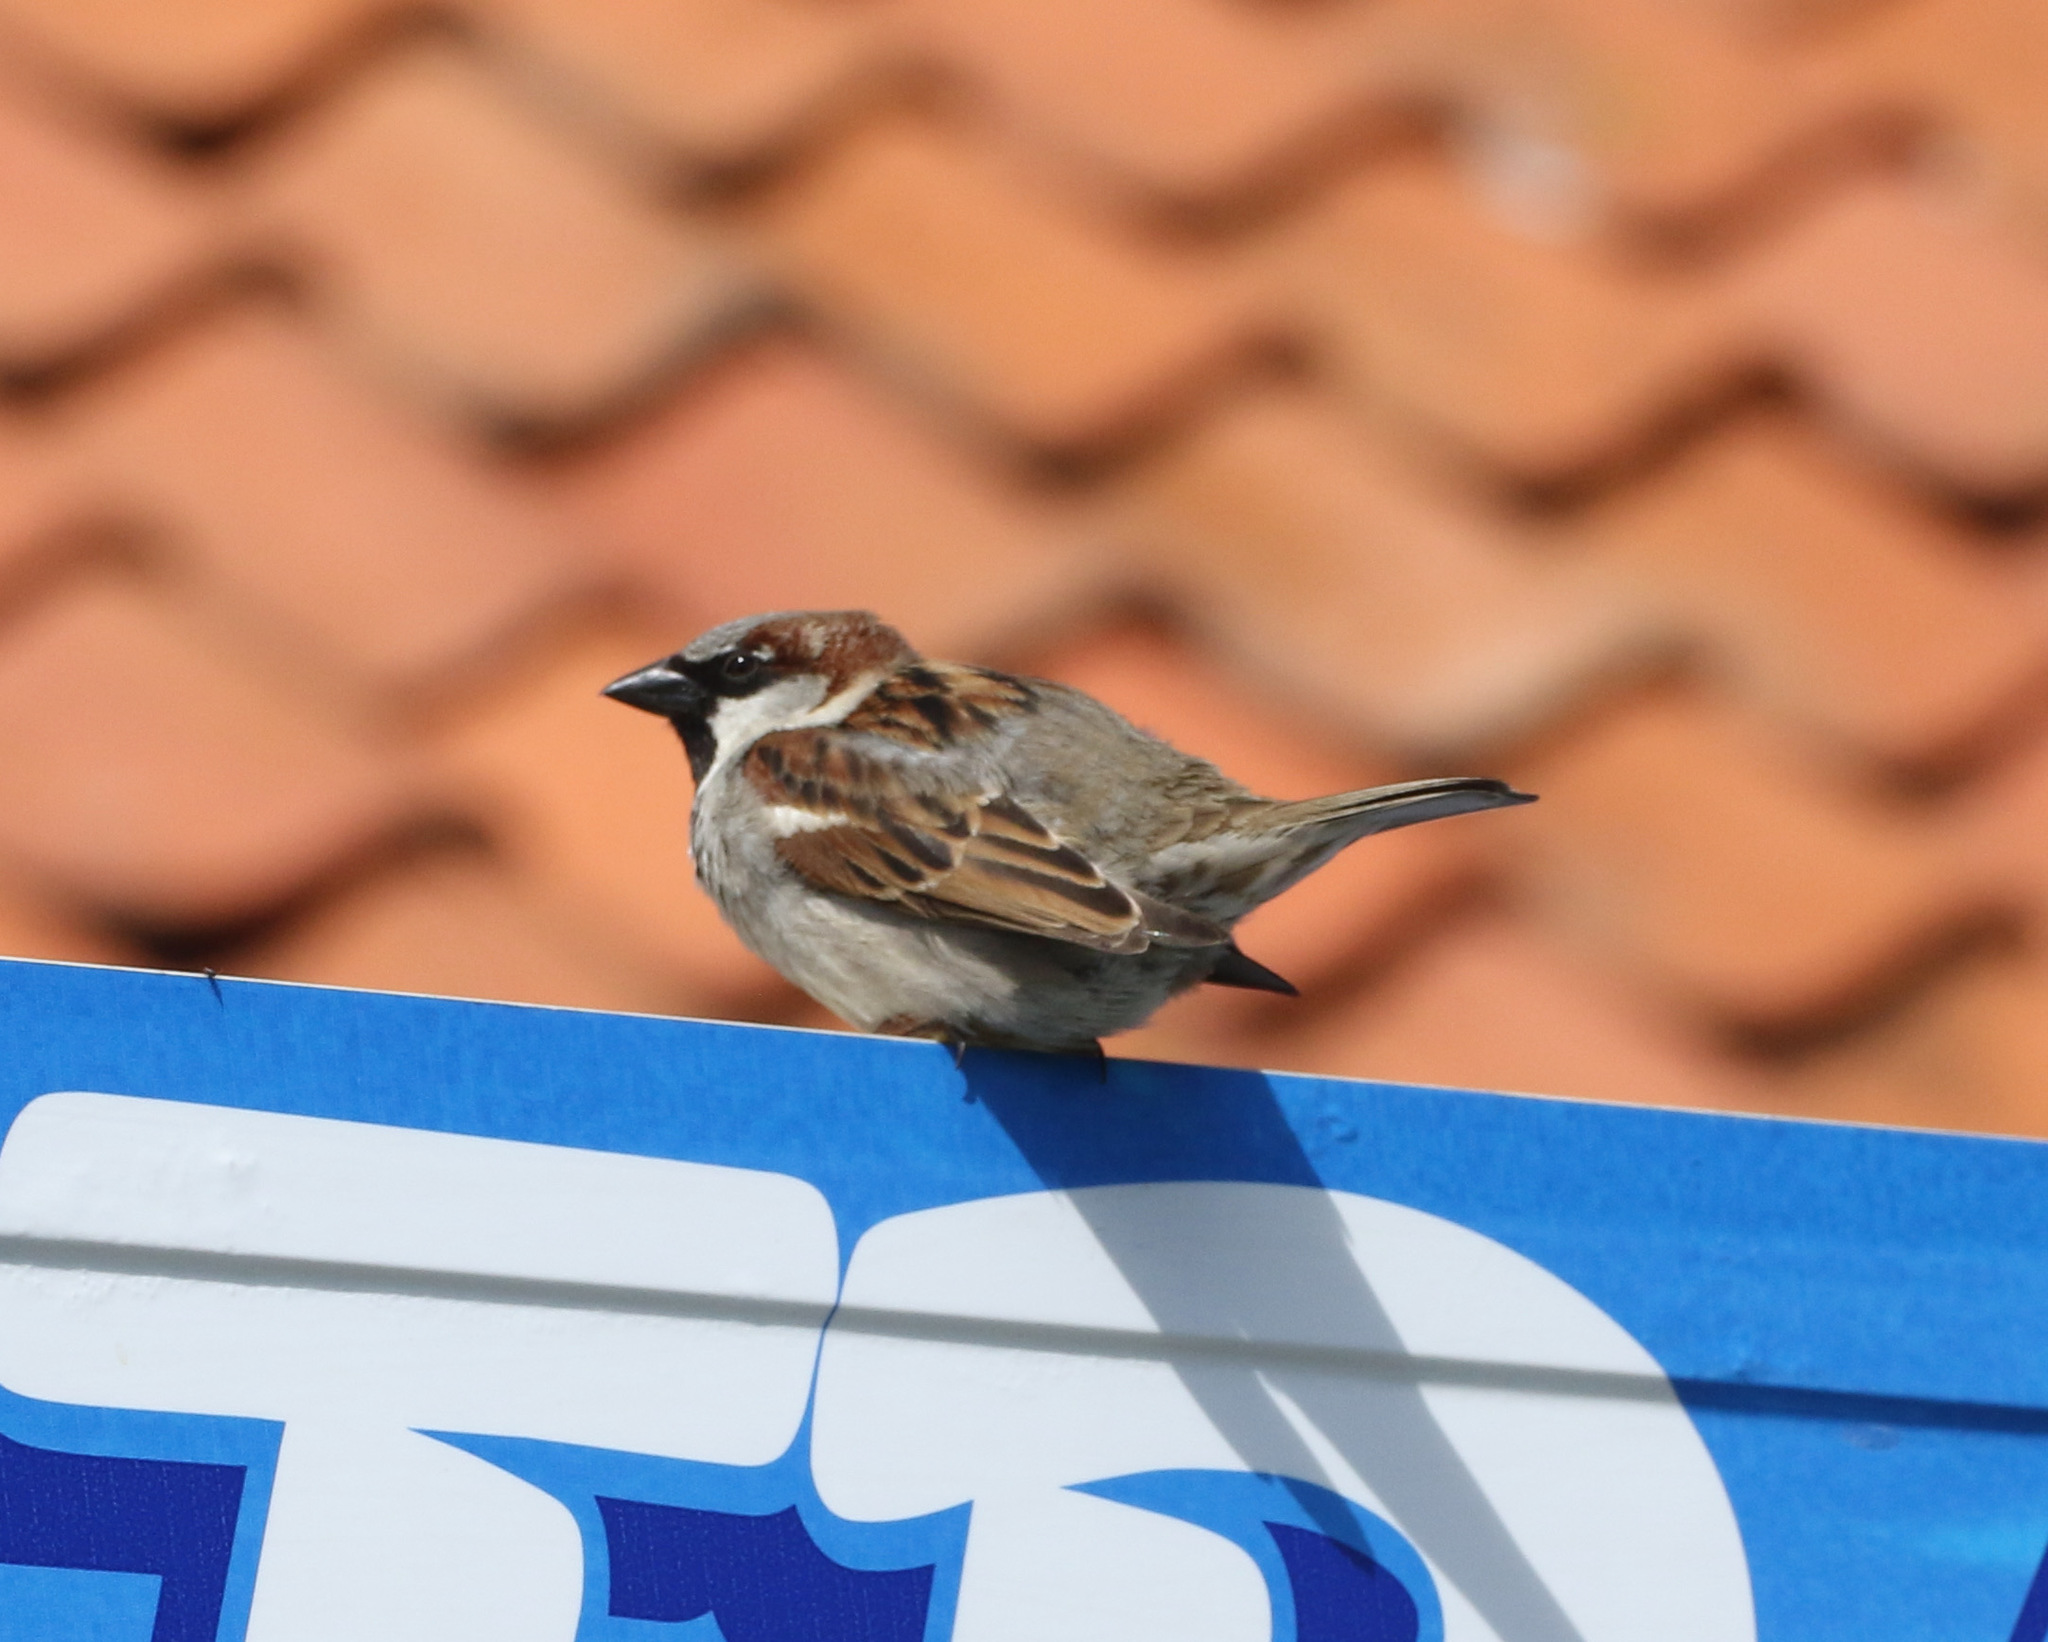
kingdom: Animalia
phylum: Chordata
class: Aves
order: Passeriformes
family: Passeridae
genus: Passer
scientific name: Passer domesticus
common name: House sparrow
